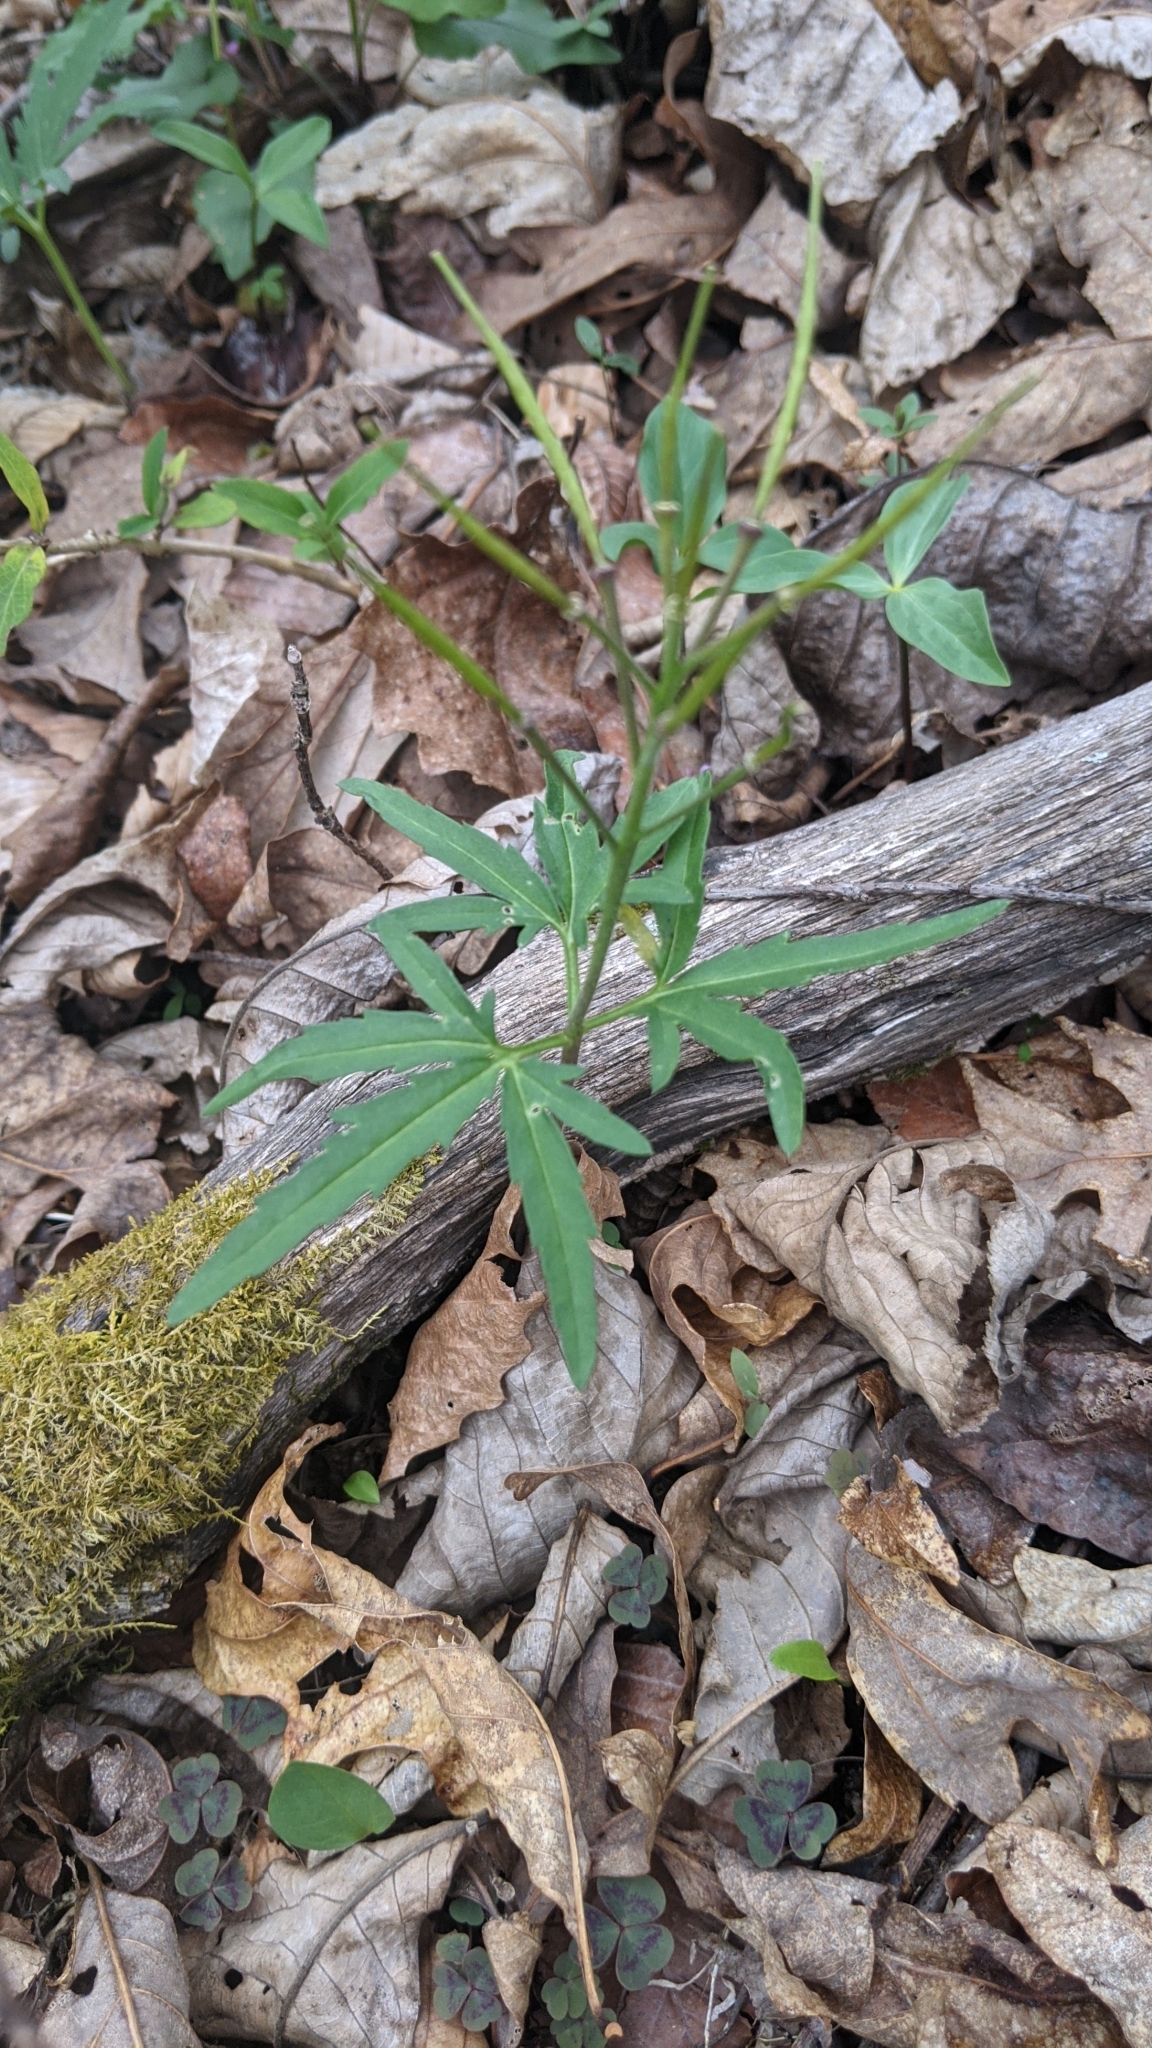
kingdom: Plantae
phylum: Tracheophyta
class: Magnoliopsida
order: Brassicales
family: Brassicaceae
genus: Cardamine
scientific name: Cardamine concatenata
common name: Cut-leaf toothcup
